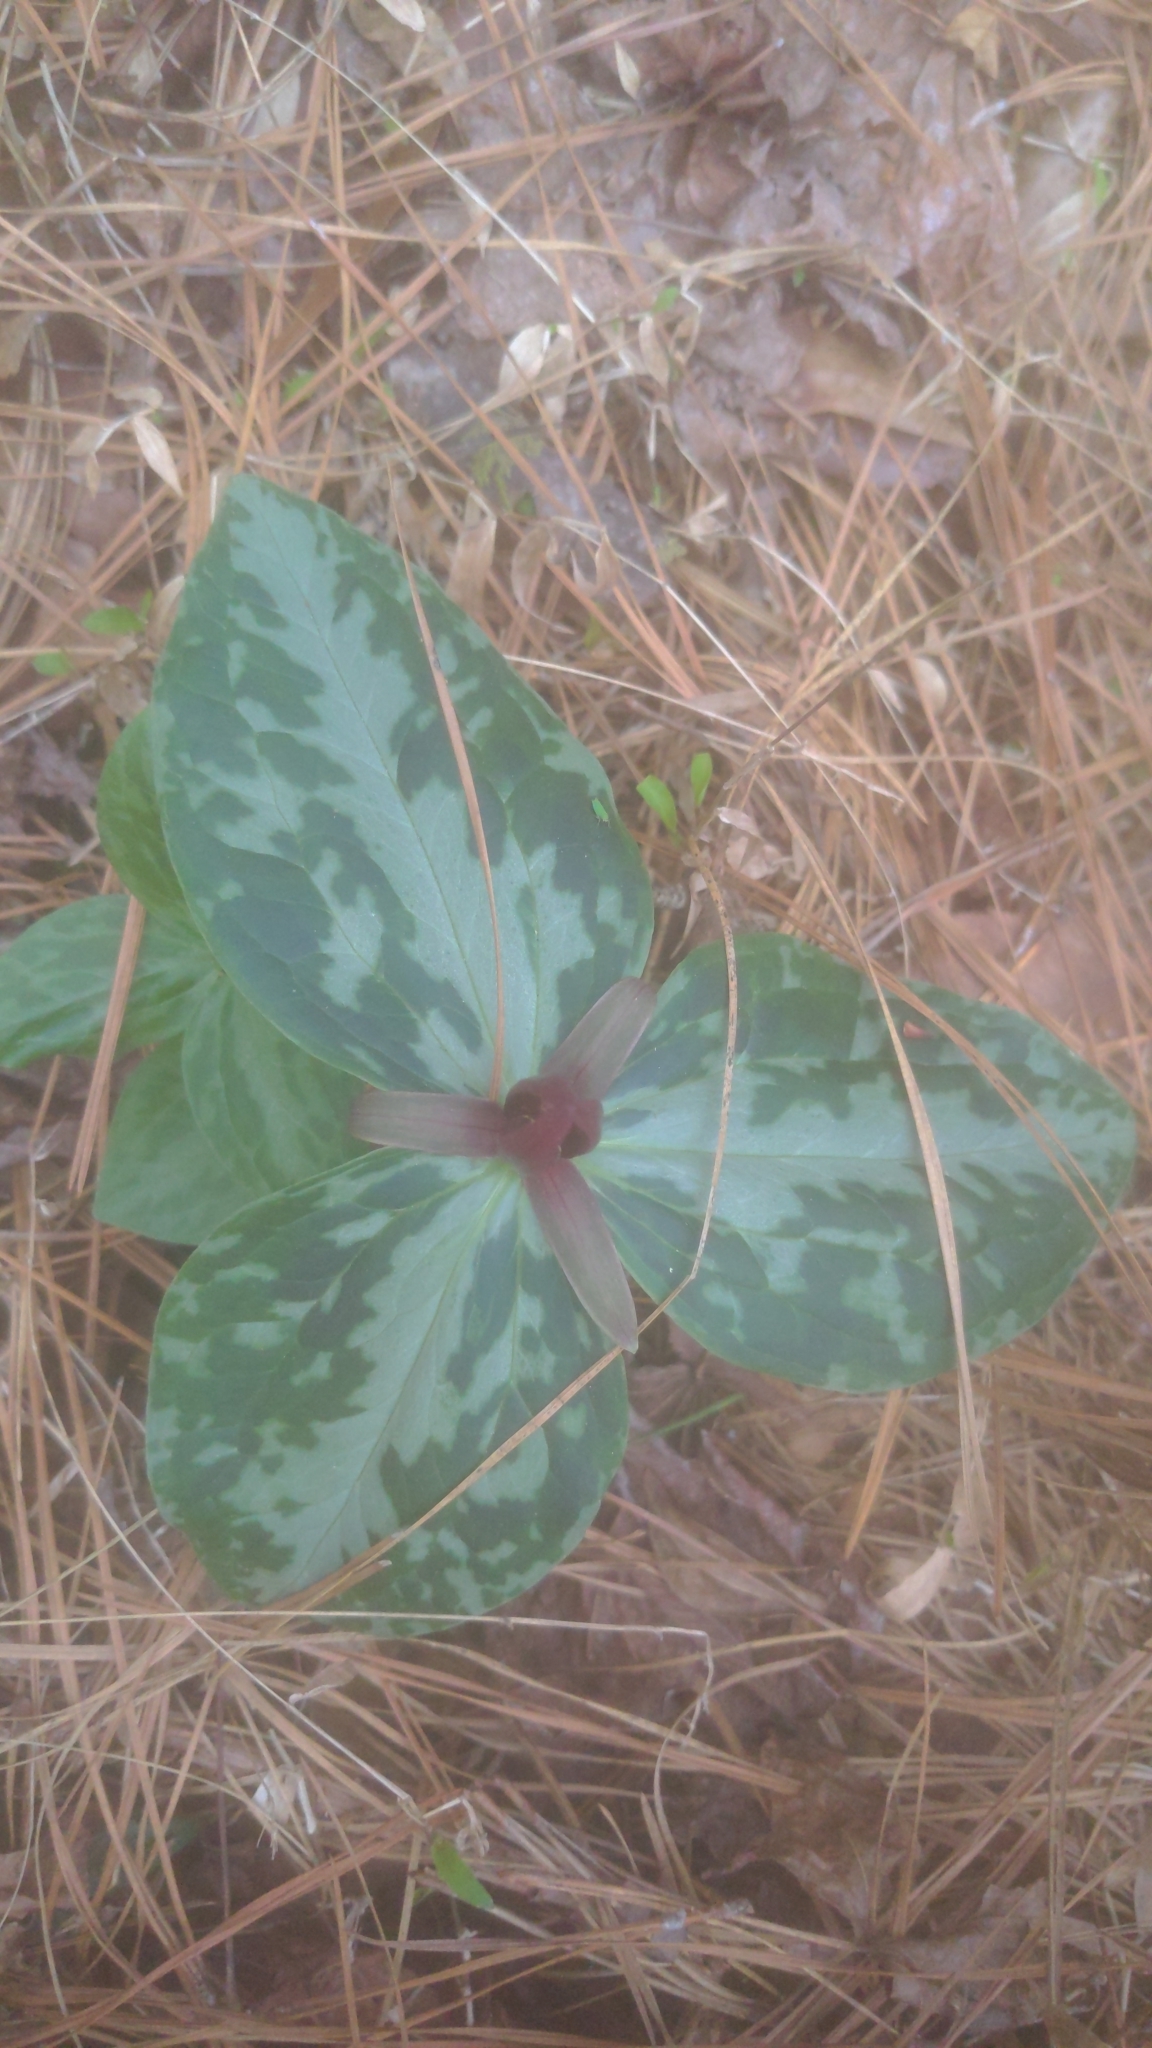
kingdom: Plantae
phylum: Tracheophyta
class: Liliopsida
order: Liliales
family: Melanthiaceae
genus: Trillium
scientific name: Trillium foetidissimum
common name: Mississippi river trillium
